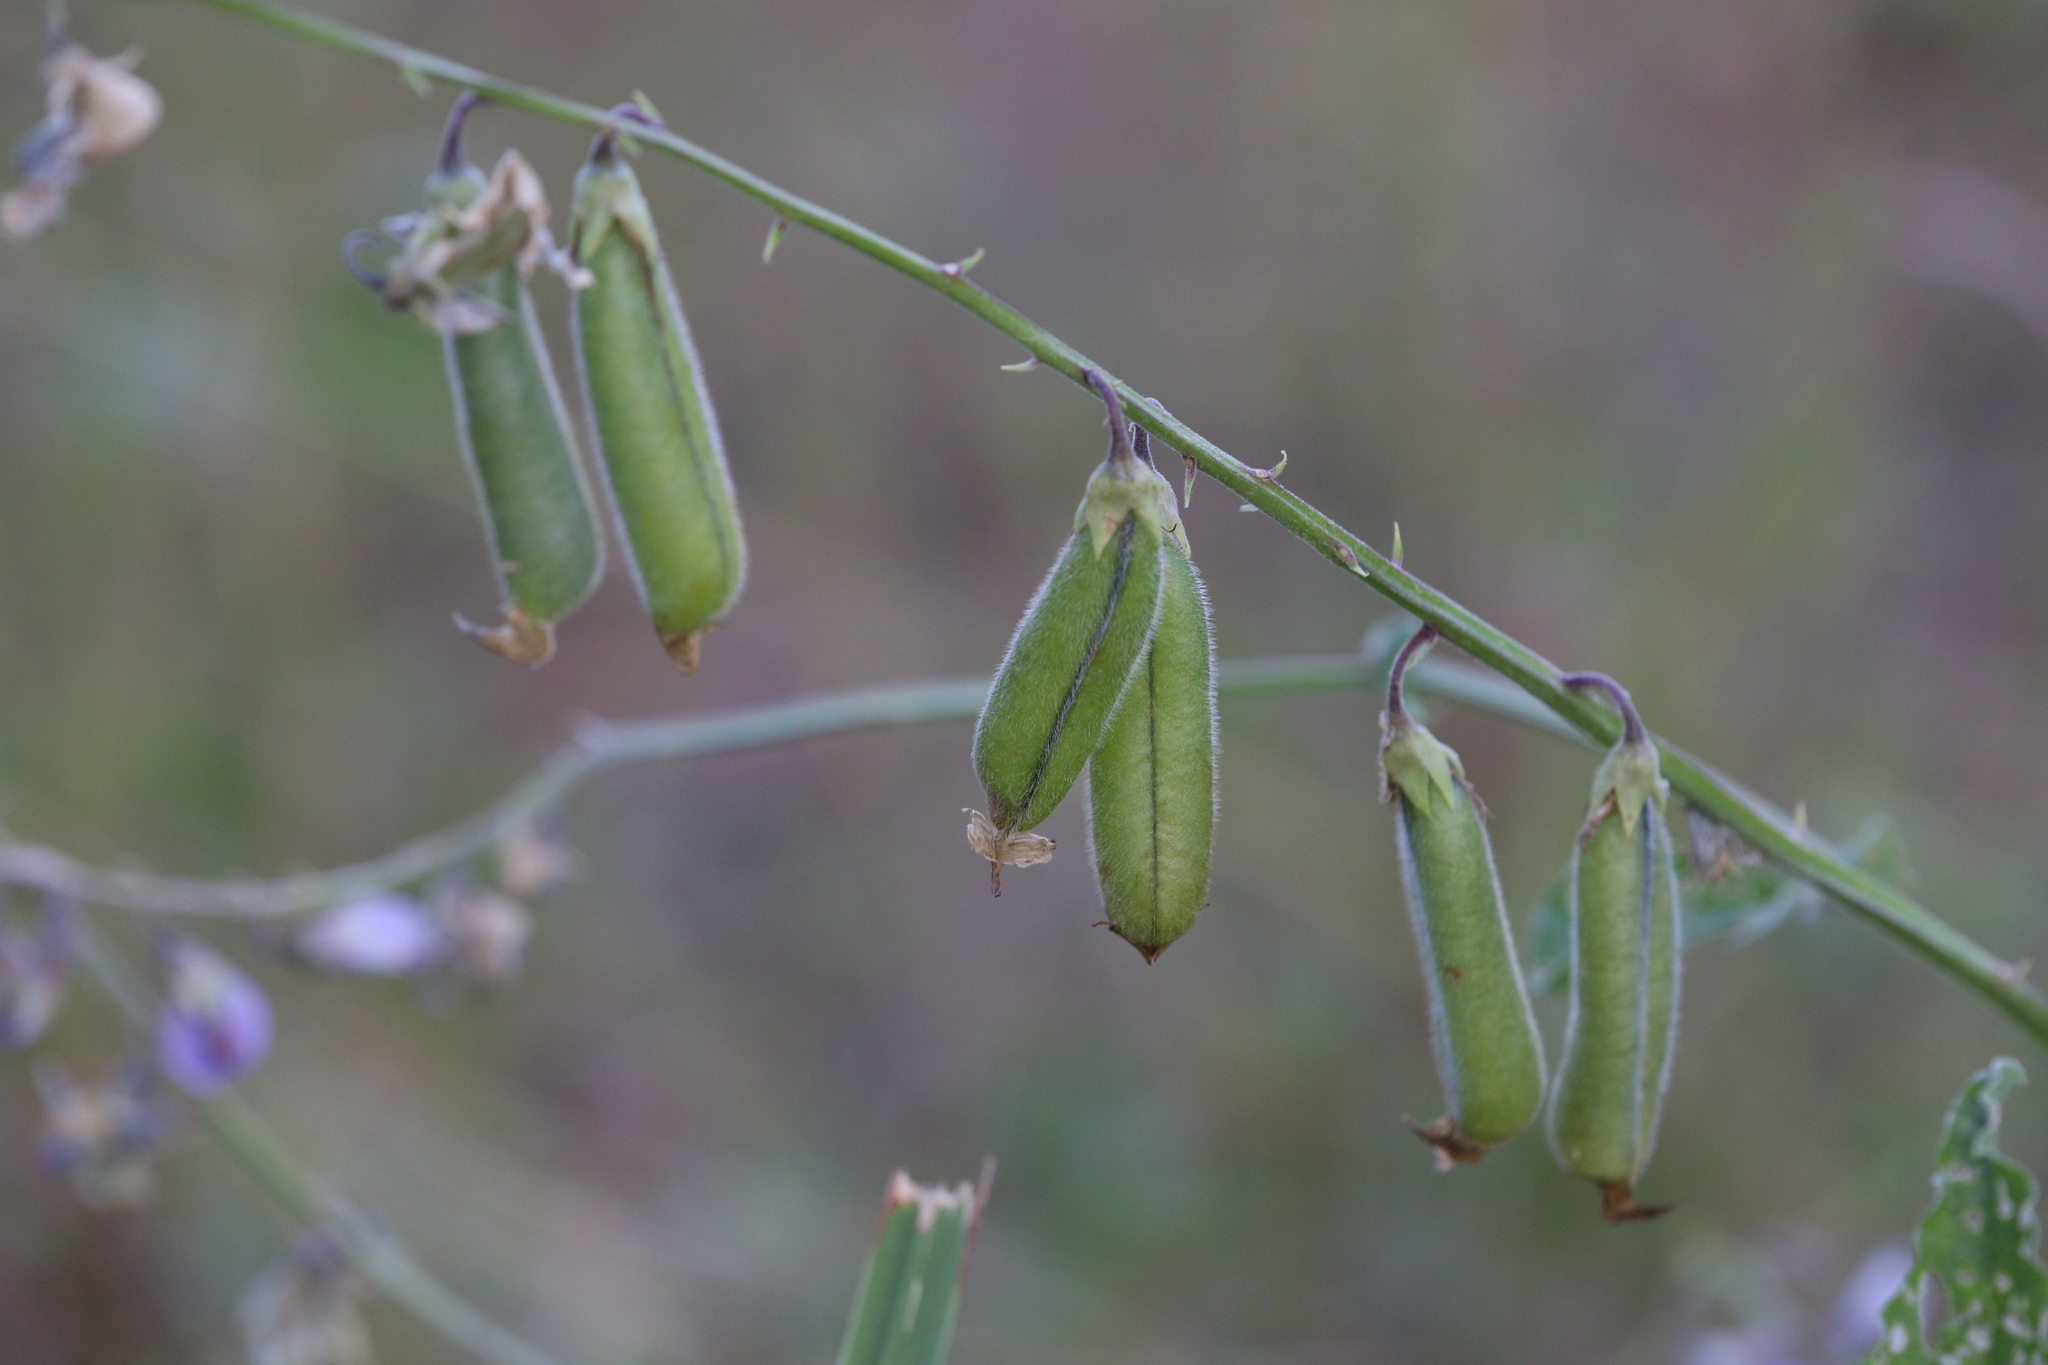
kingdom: Plantae
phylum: Tracheophyta
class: Magnoliopsida
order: Fabales
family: Fabaceae
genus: Crotalaria
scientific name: Crotalaria verrucosa
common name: Blue rattlesnake
